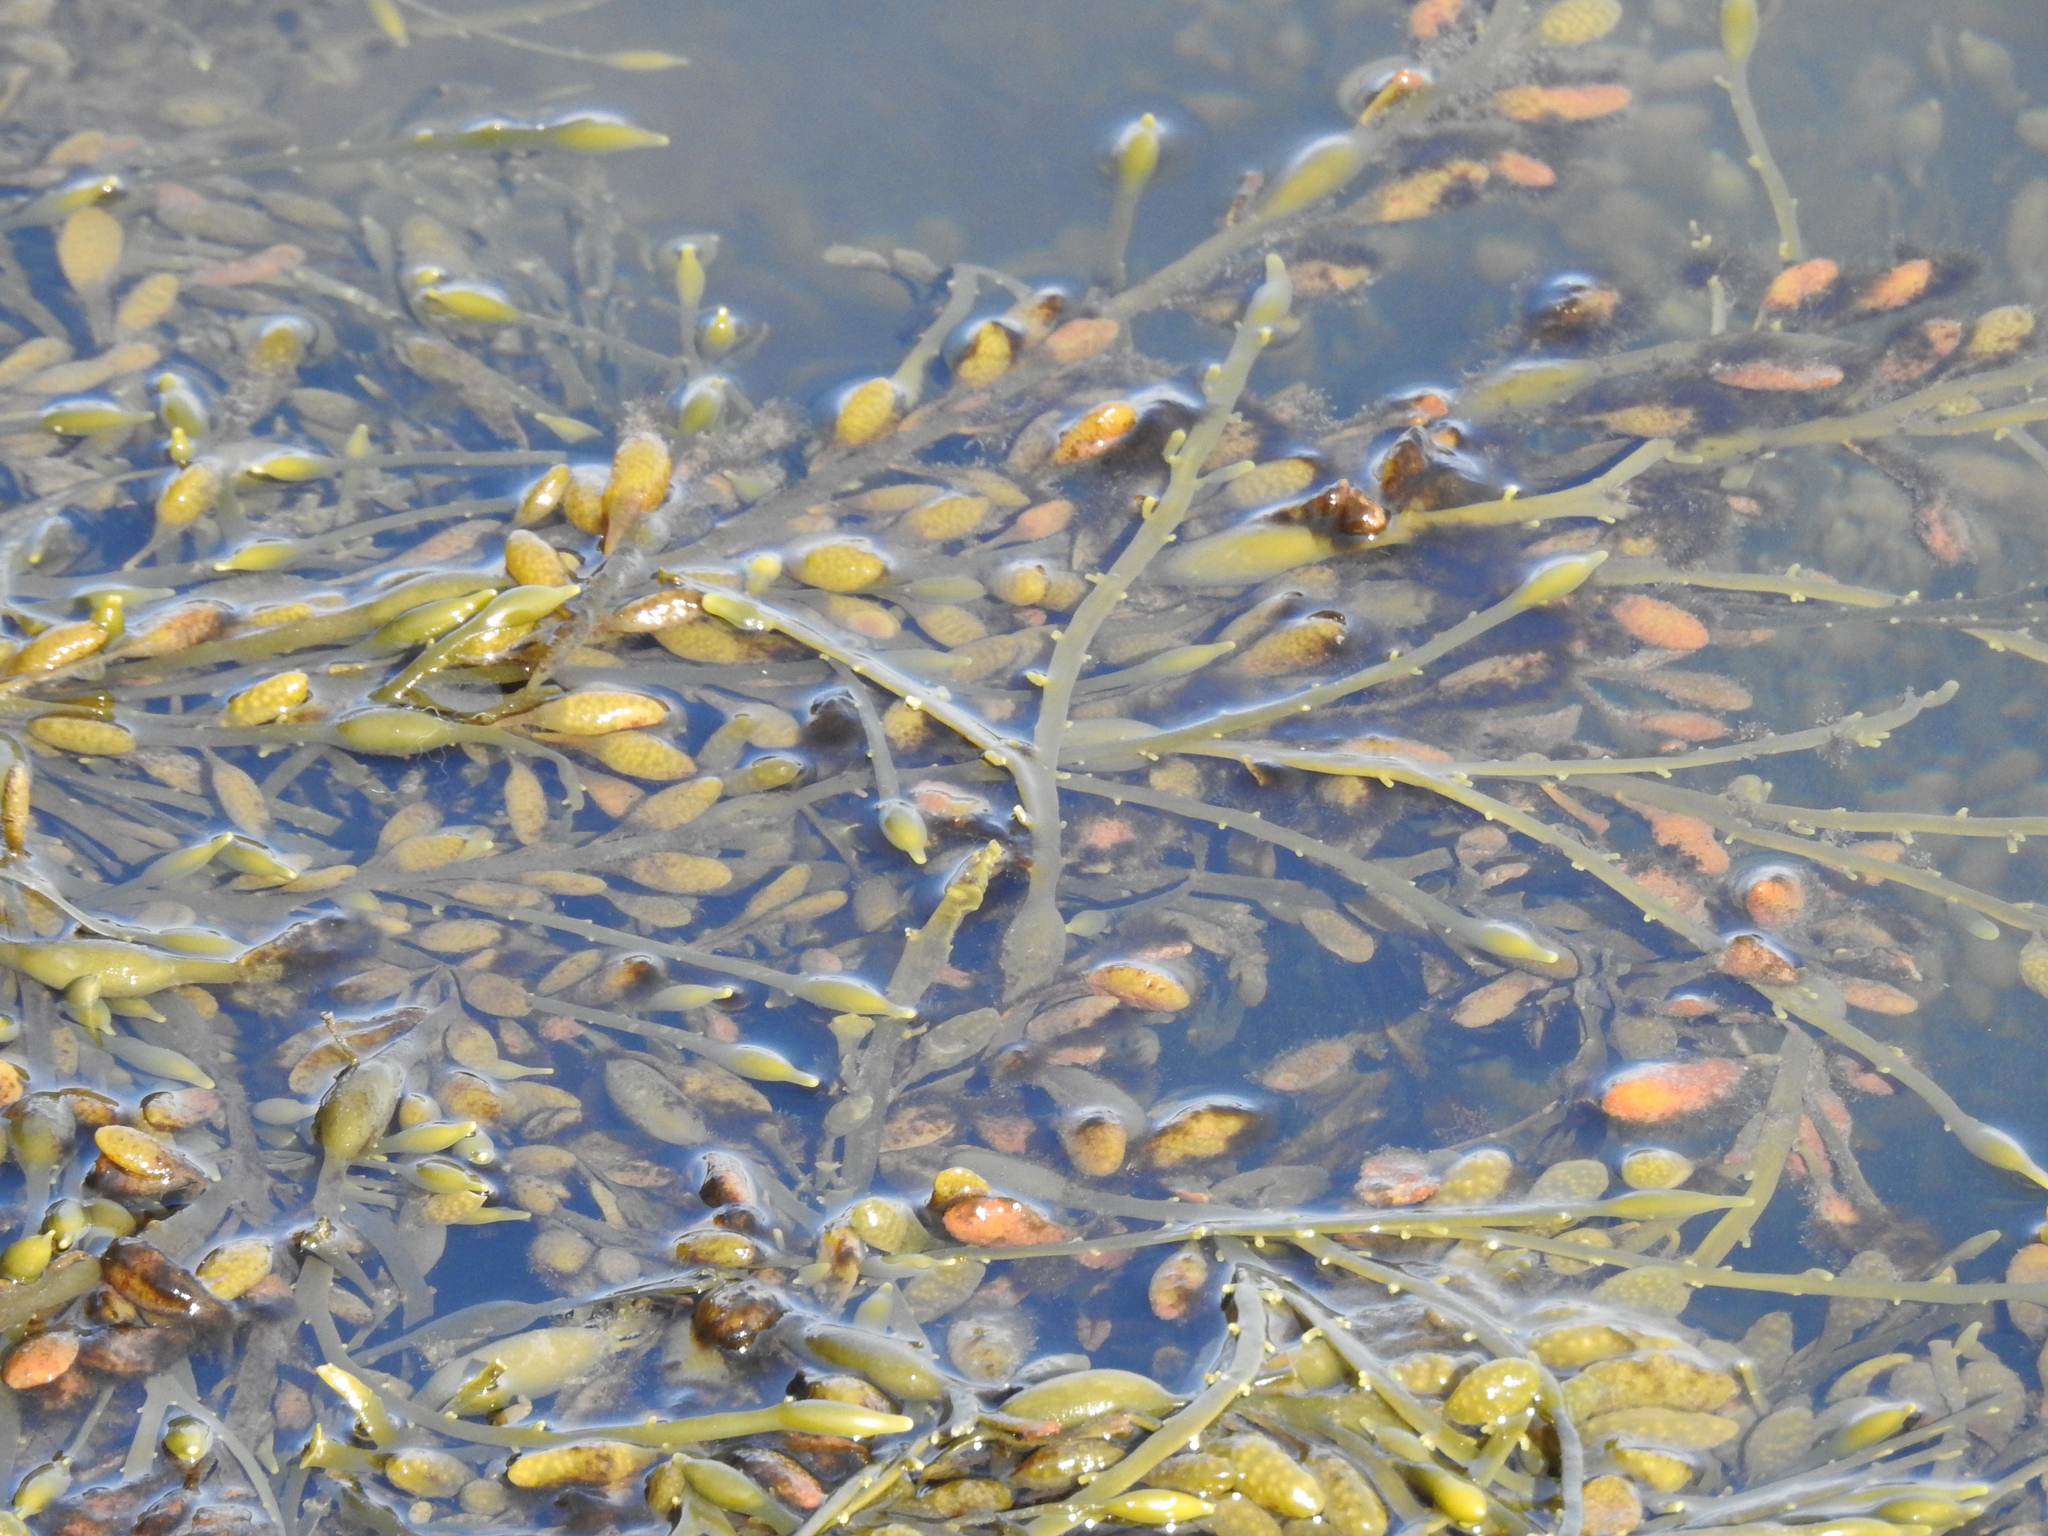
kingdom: Chromista
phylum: Ochrophyta
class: Phaeophyceae
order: Fucales
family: Fucaceae
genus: Ascophyllum
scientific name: Ascophyllum nodosum
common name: Knotted wrack
